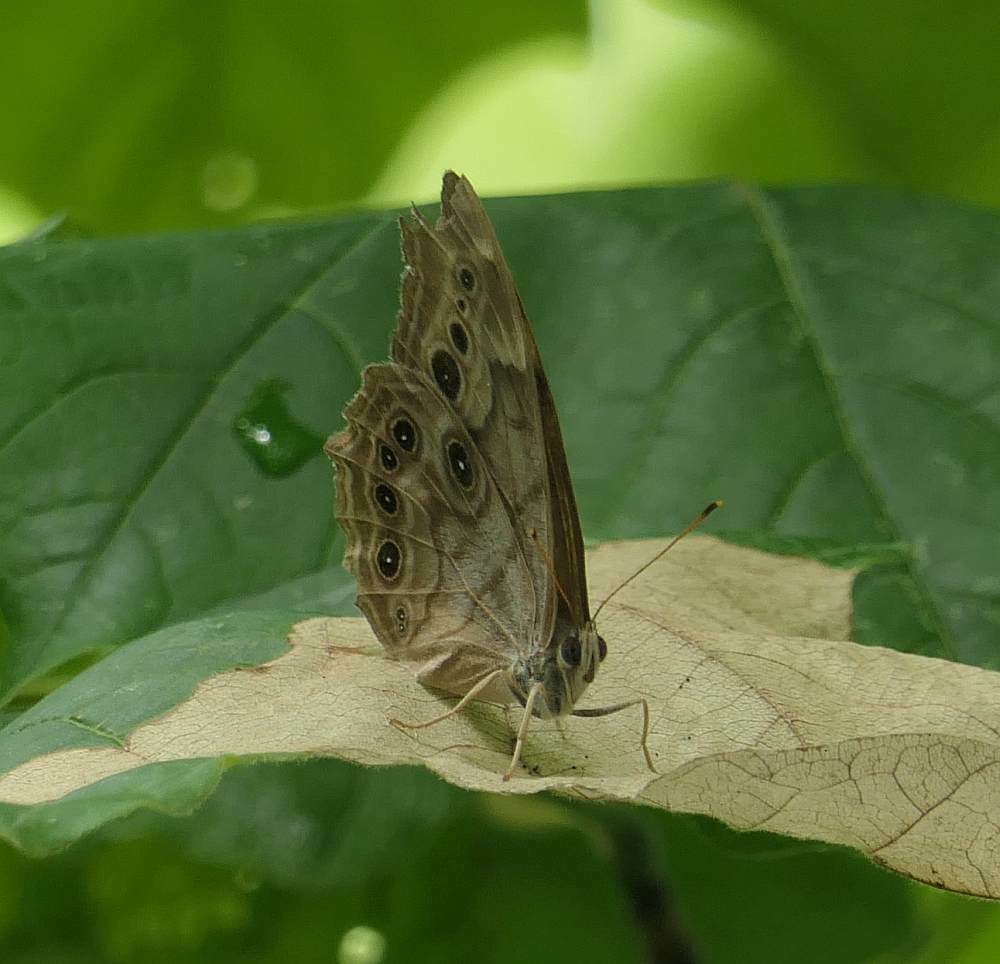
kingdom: Animalia
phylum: Arthropoda
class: Insecta
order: Lepidoptera
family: Nymphalidae
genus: Lethe
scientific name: Lethe anthedon
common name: Northern pearly-eye
